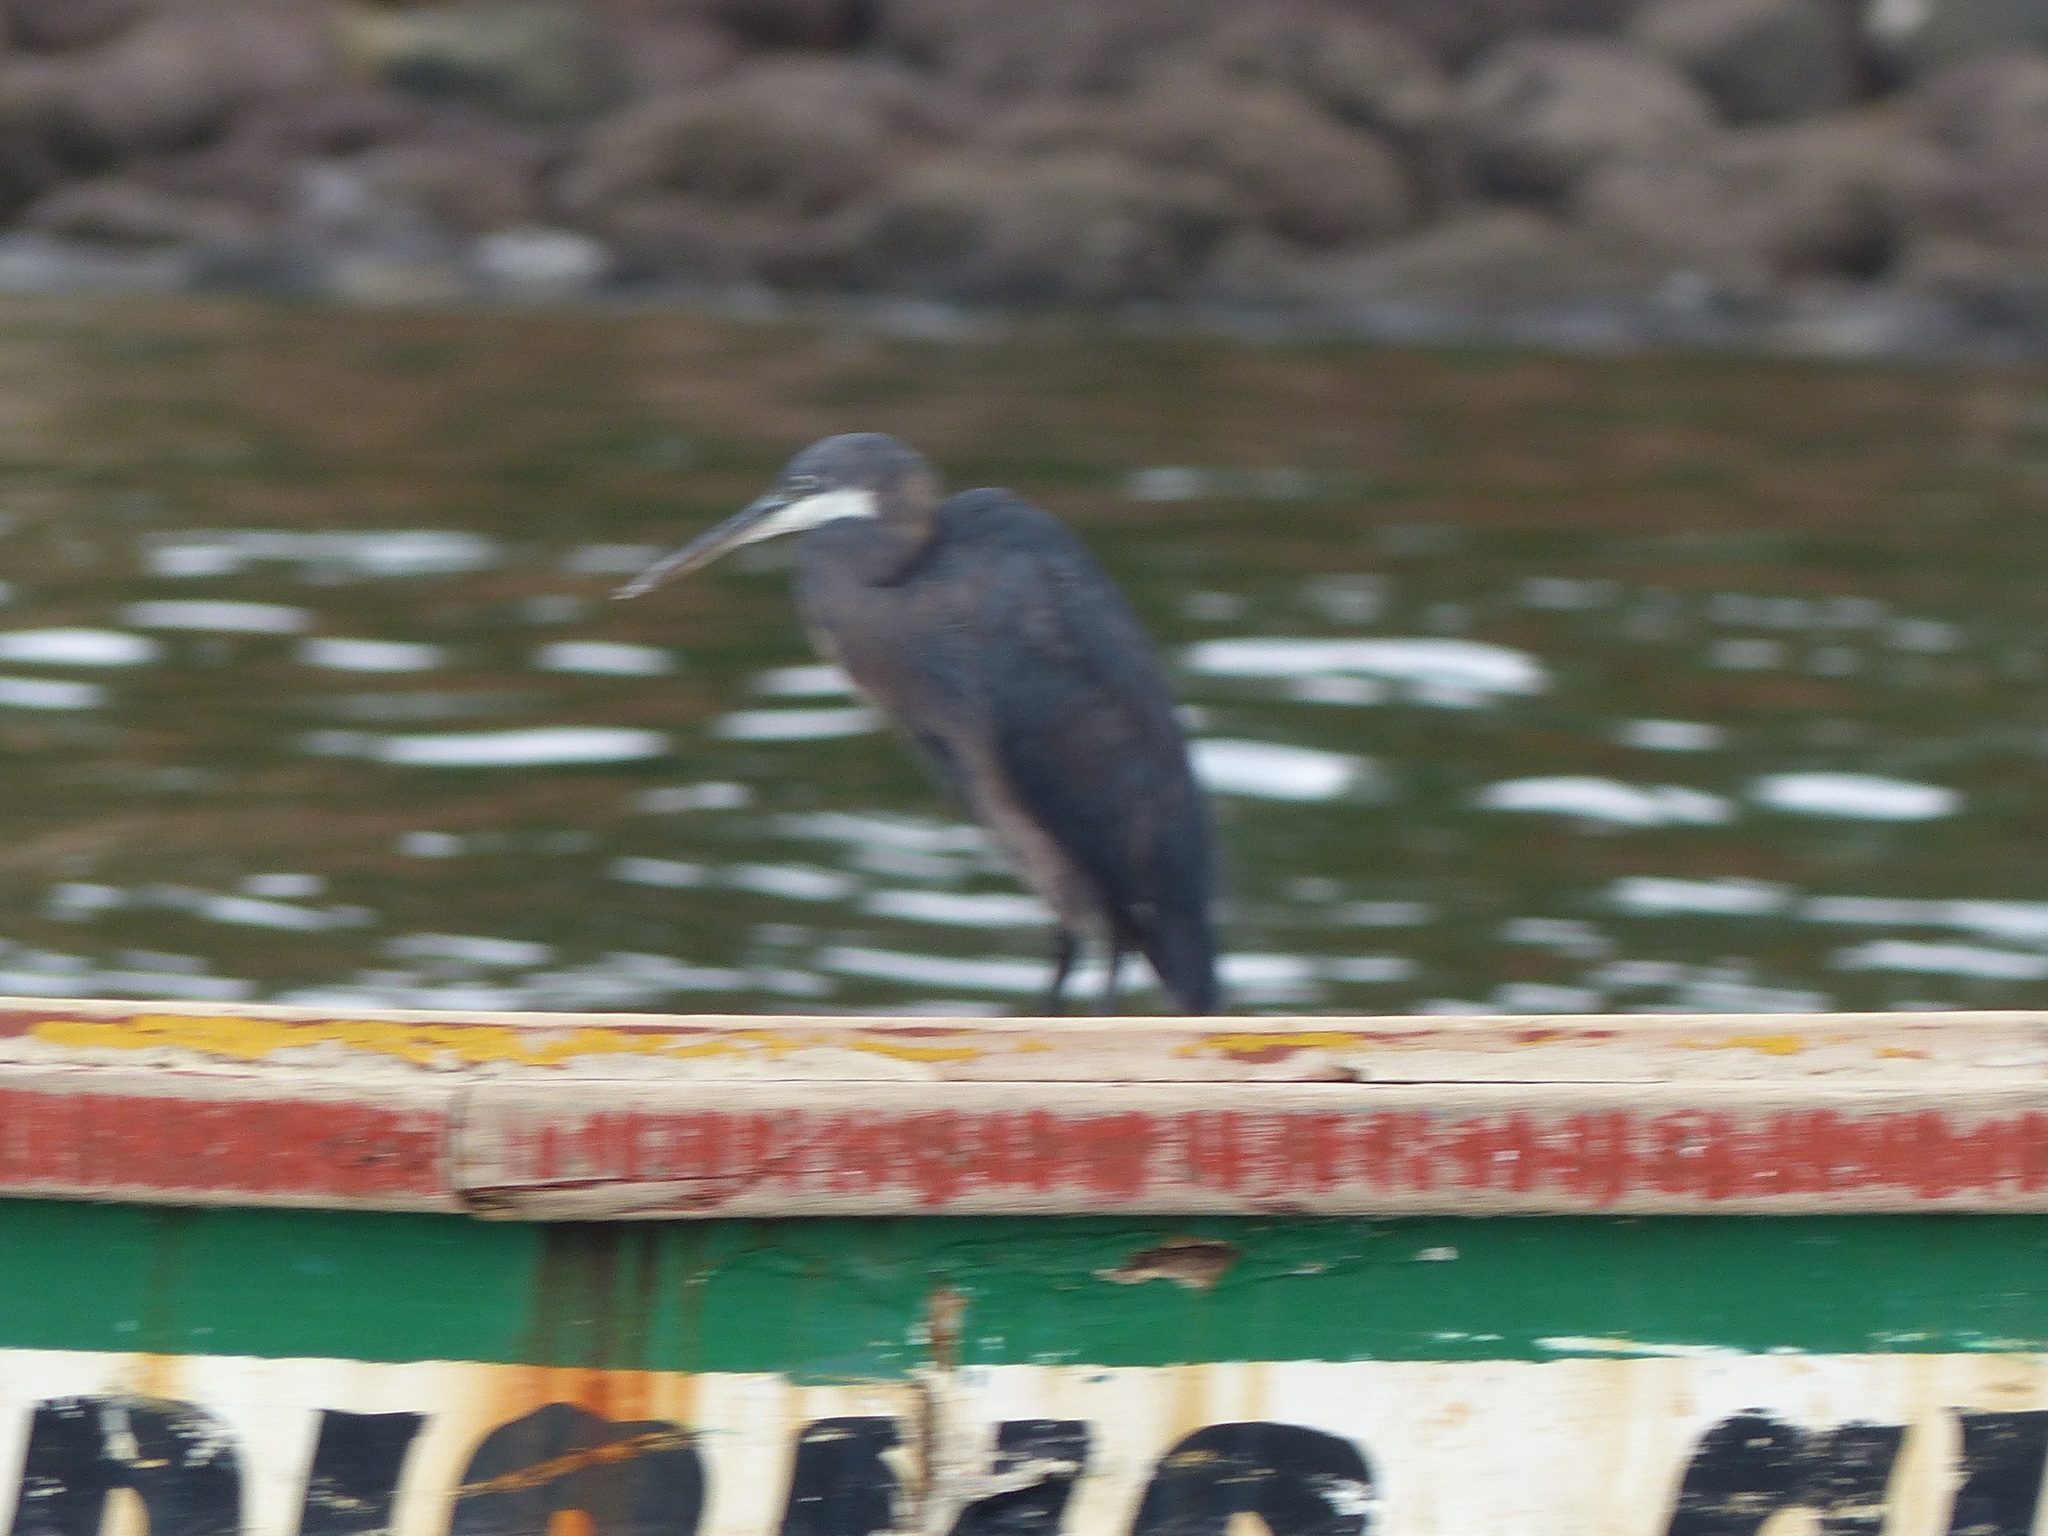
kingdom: Animalia
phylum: Chordata
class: Aves
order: Pelecaniformes
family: Ardeidae
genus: Egretta
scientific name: Egretta gularis
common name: Western reef-heron
